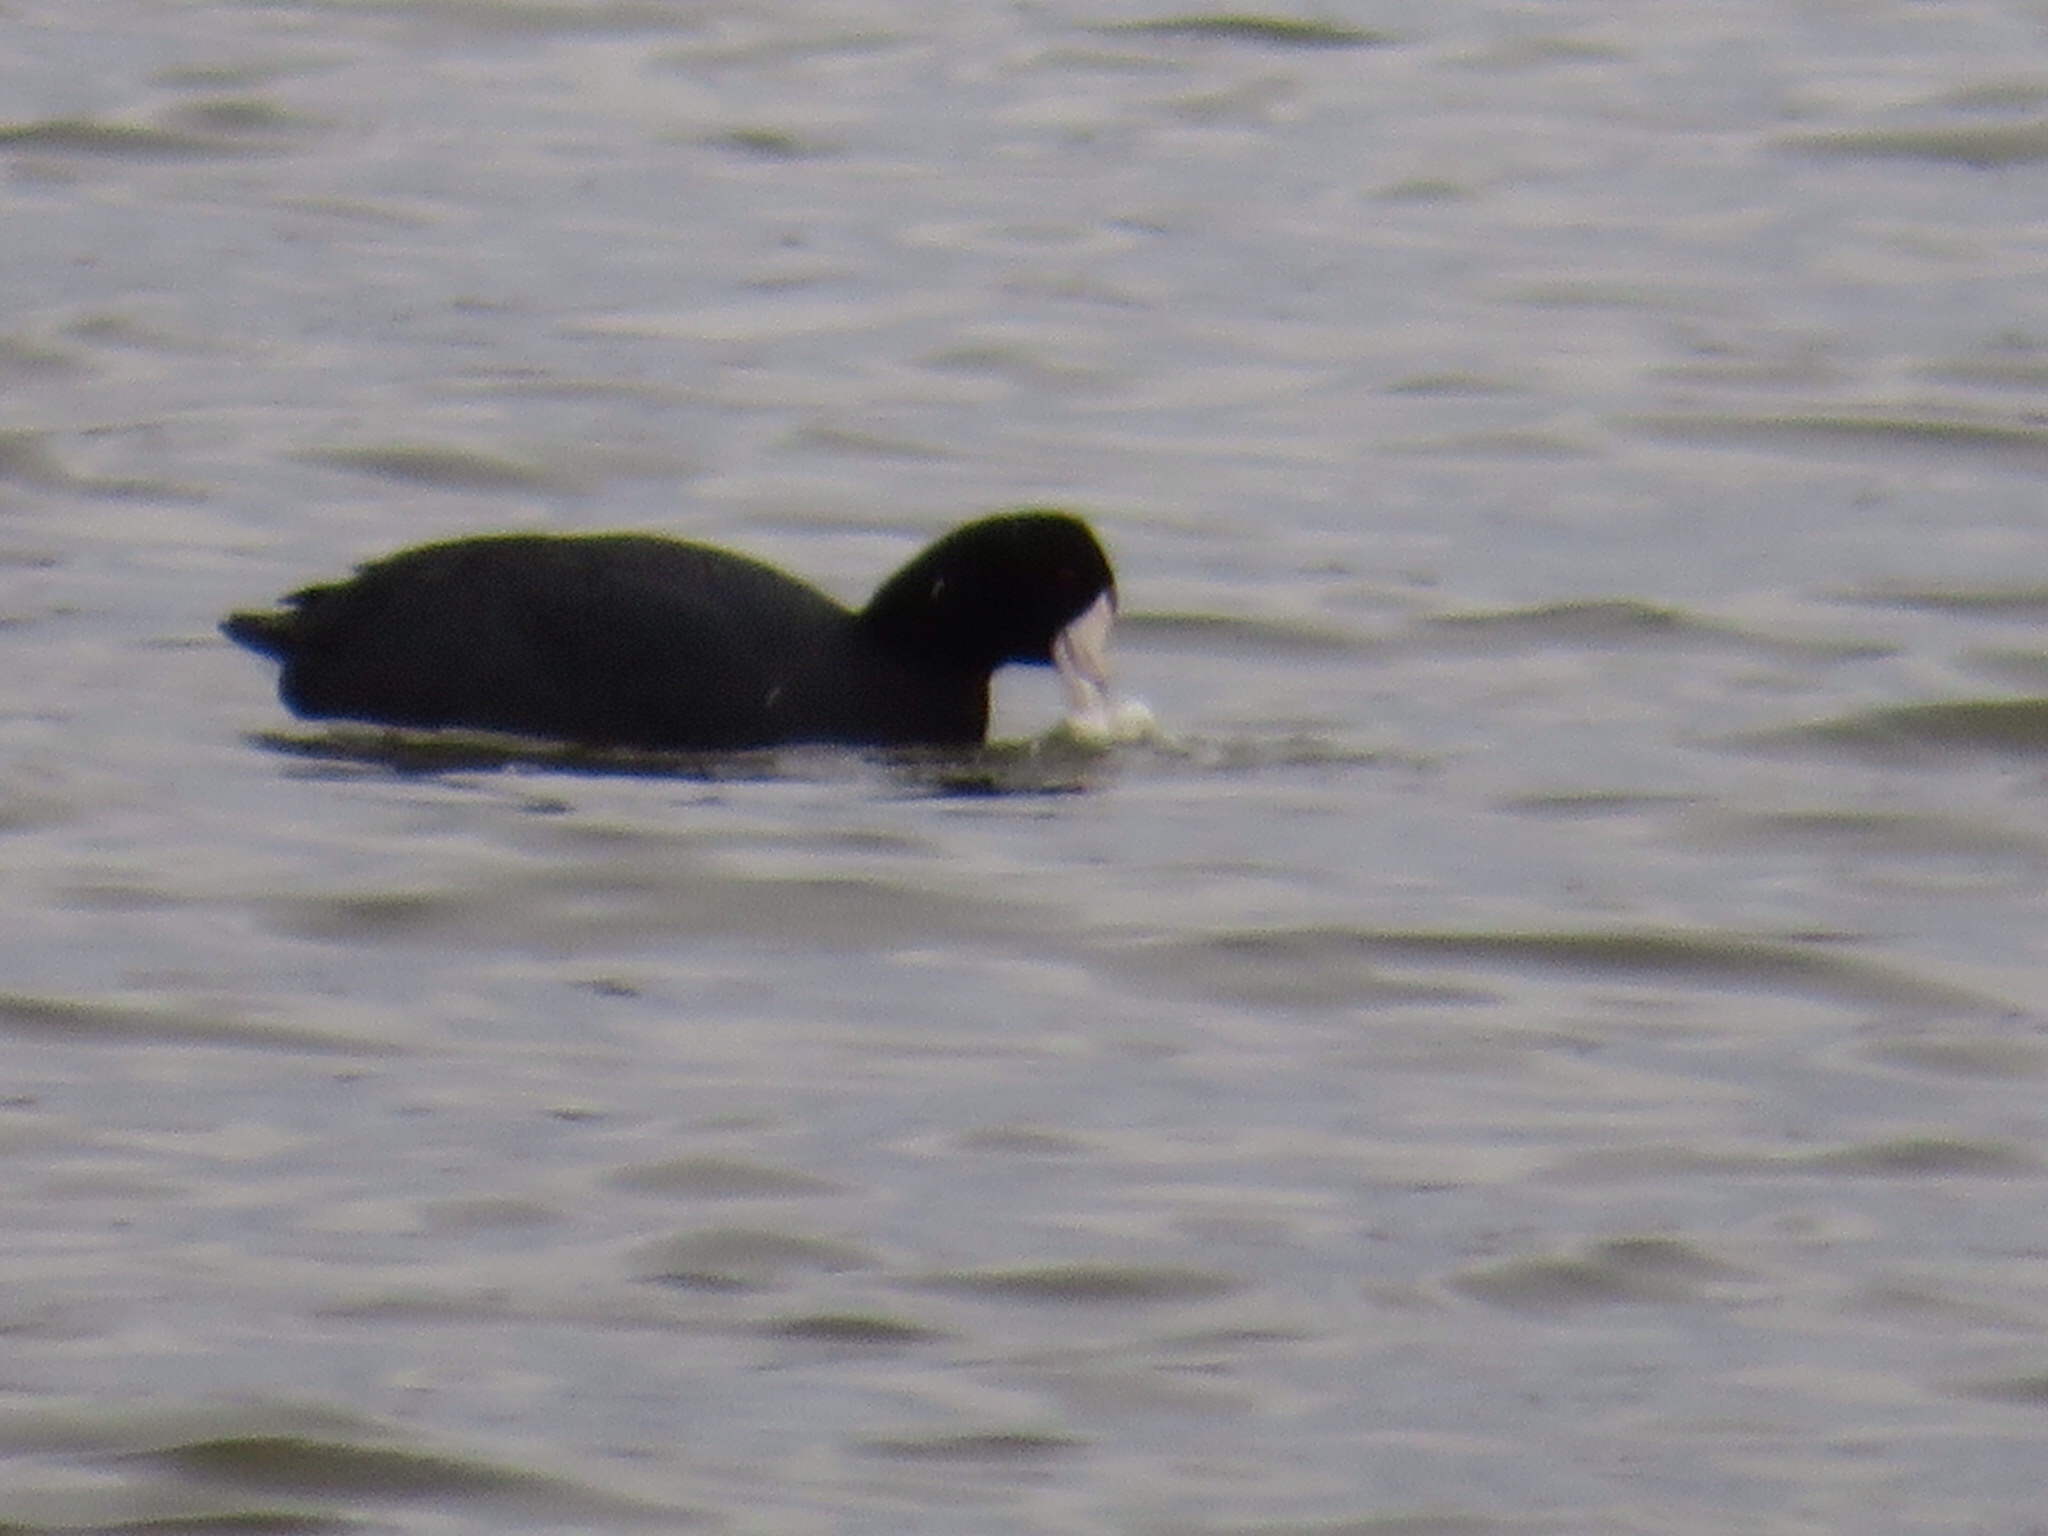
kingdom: Animalia
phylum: Chordata
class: Aves
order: Gruiformes
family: Rallidae
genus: Fulica
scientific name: Fulica americana
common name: American coot
